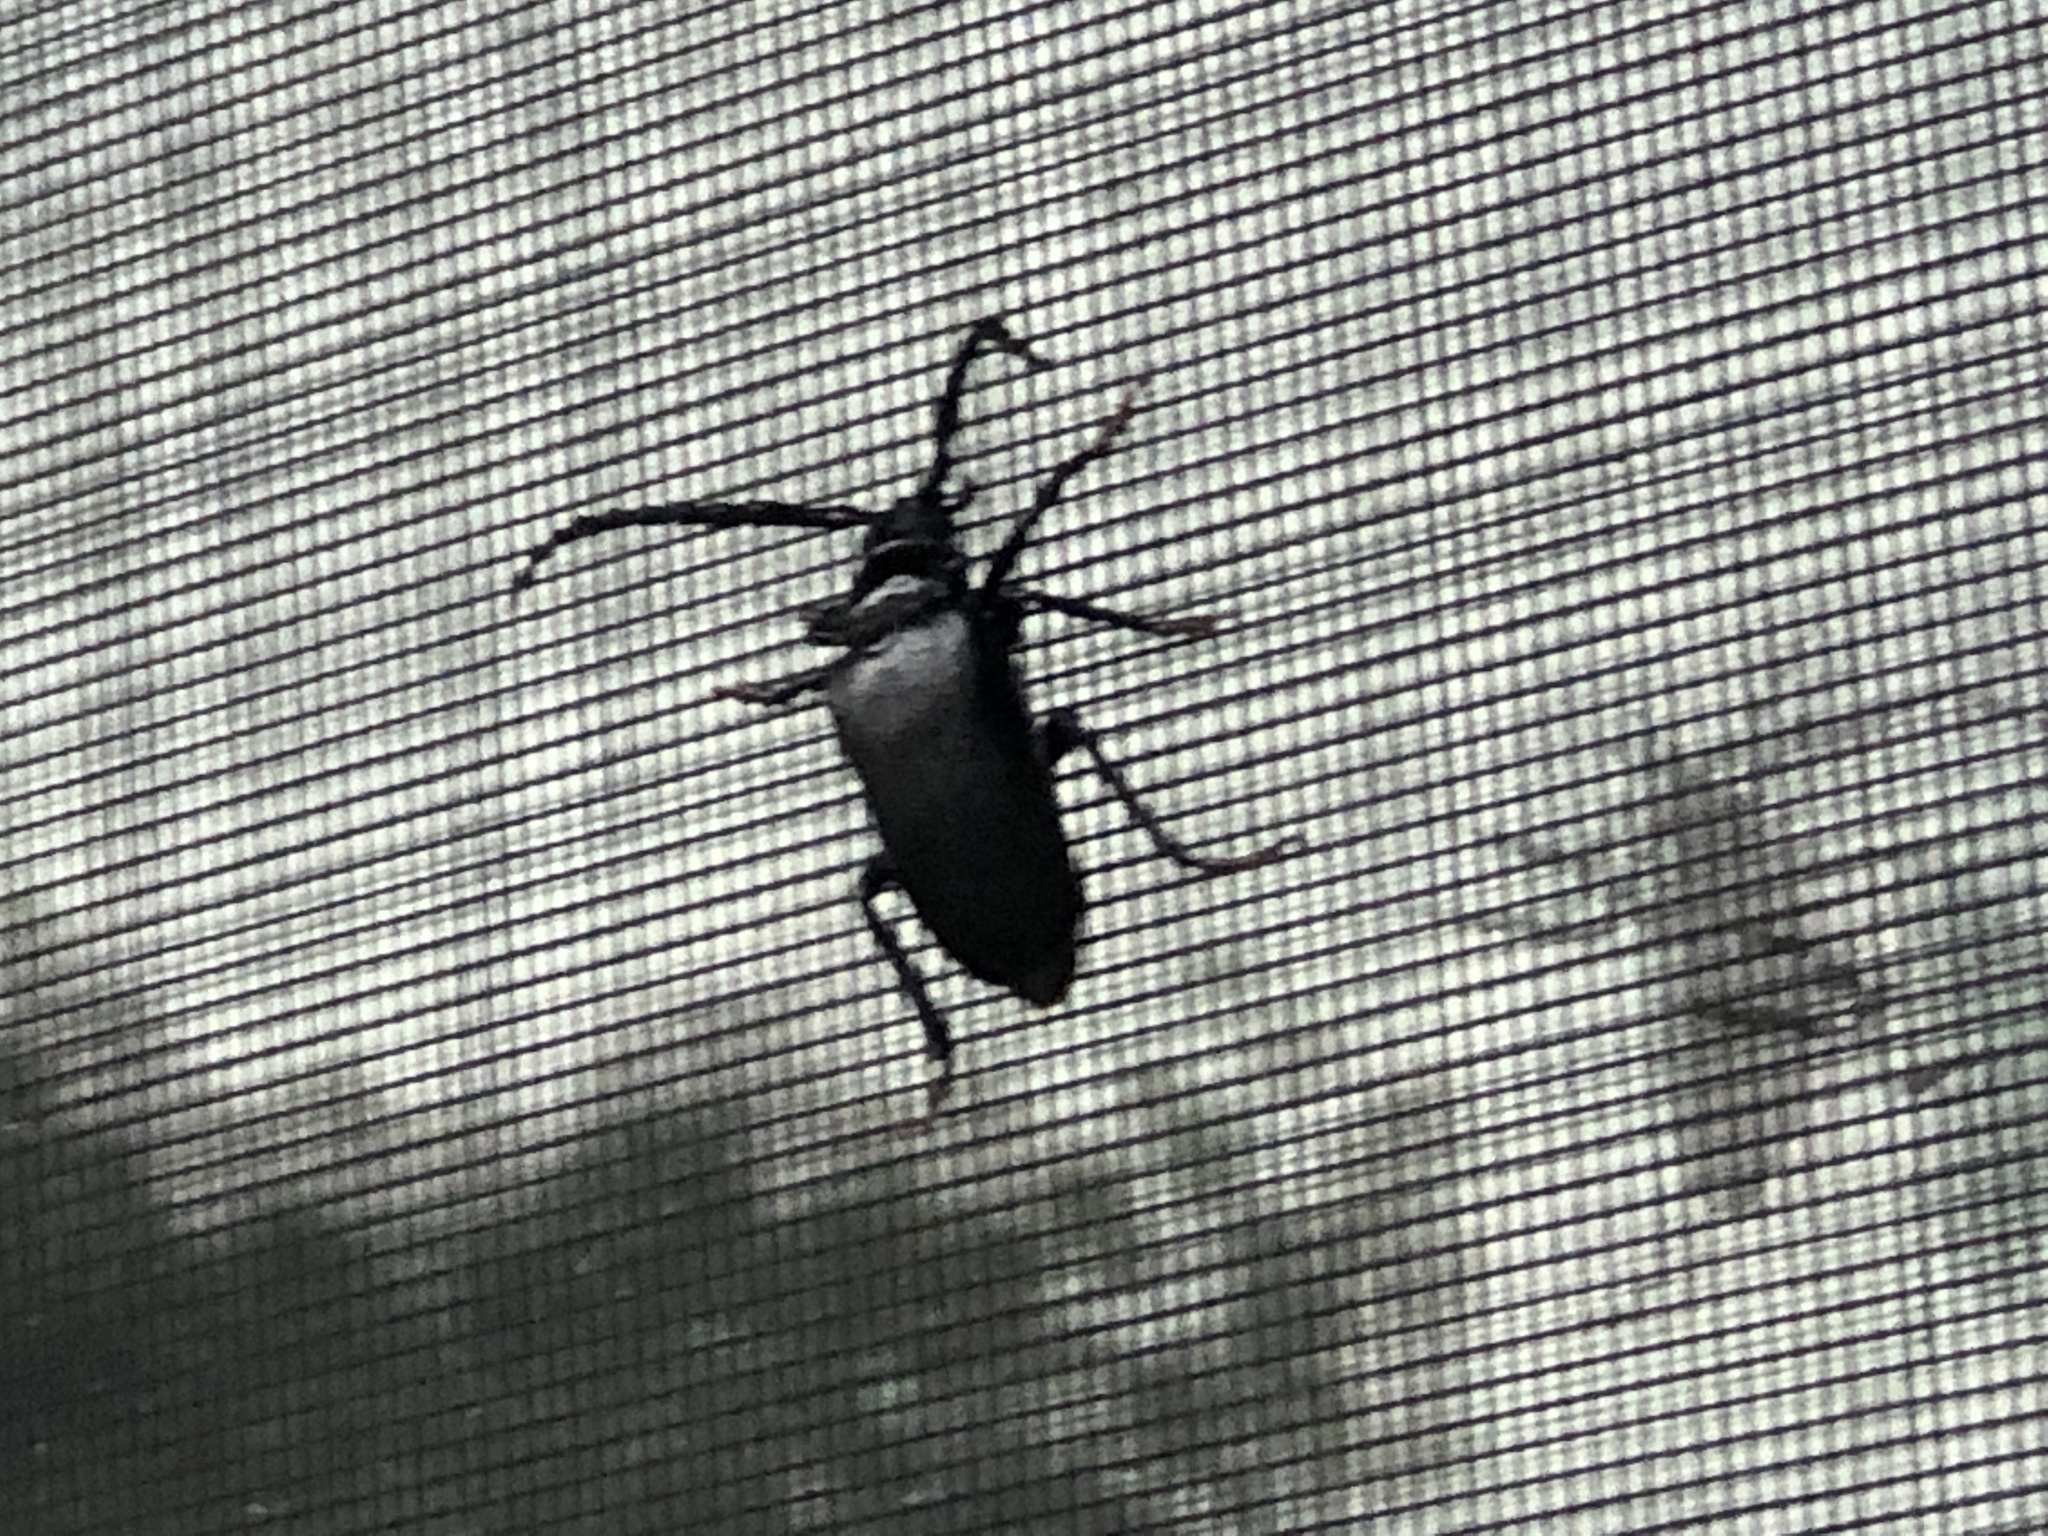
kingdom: Animalia
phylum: Arthropoda
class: Insecta
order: Coleoptera
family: Cerambycidae
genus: Prionus
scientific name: Prionus laticollis
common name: Broad necked prionus
